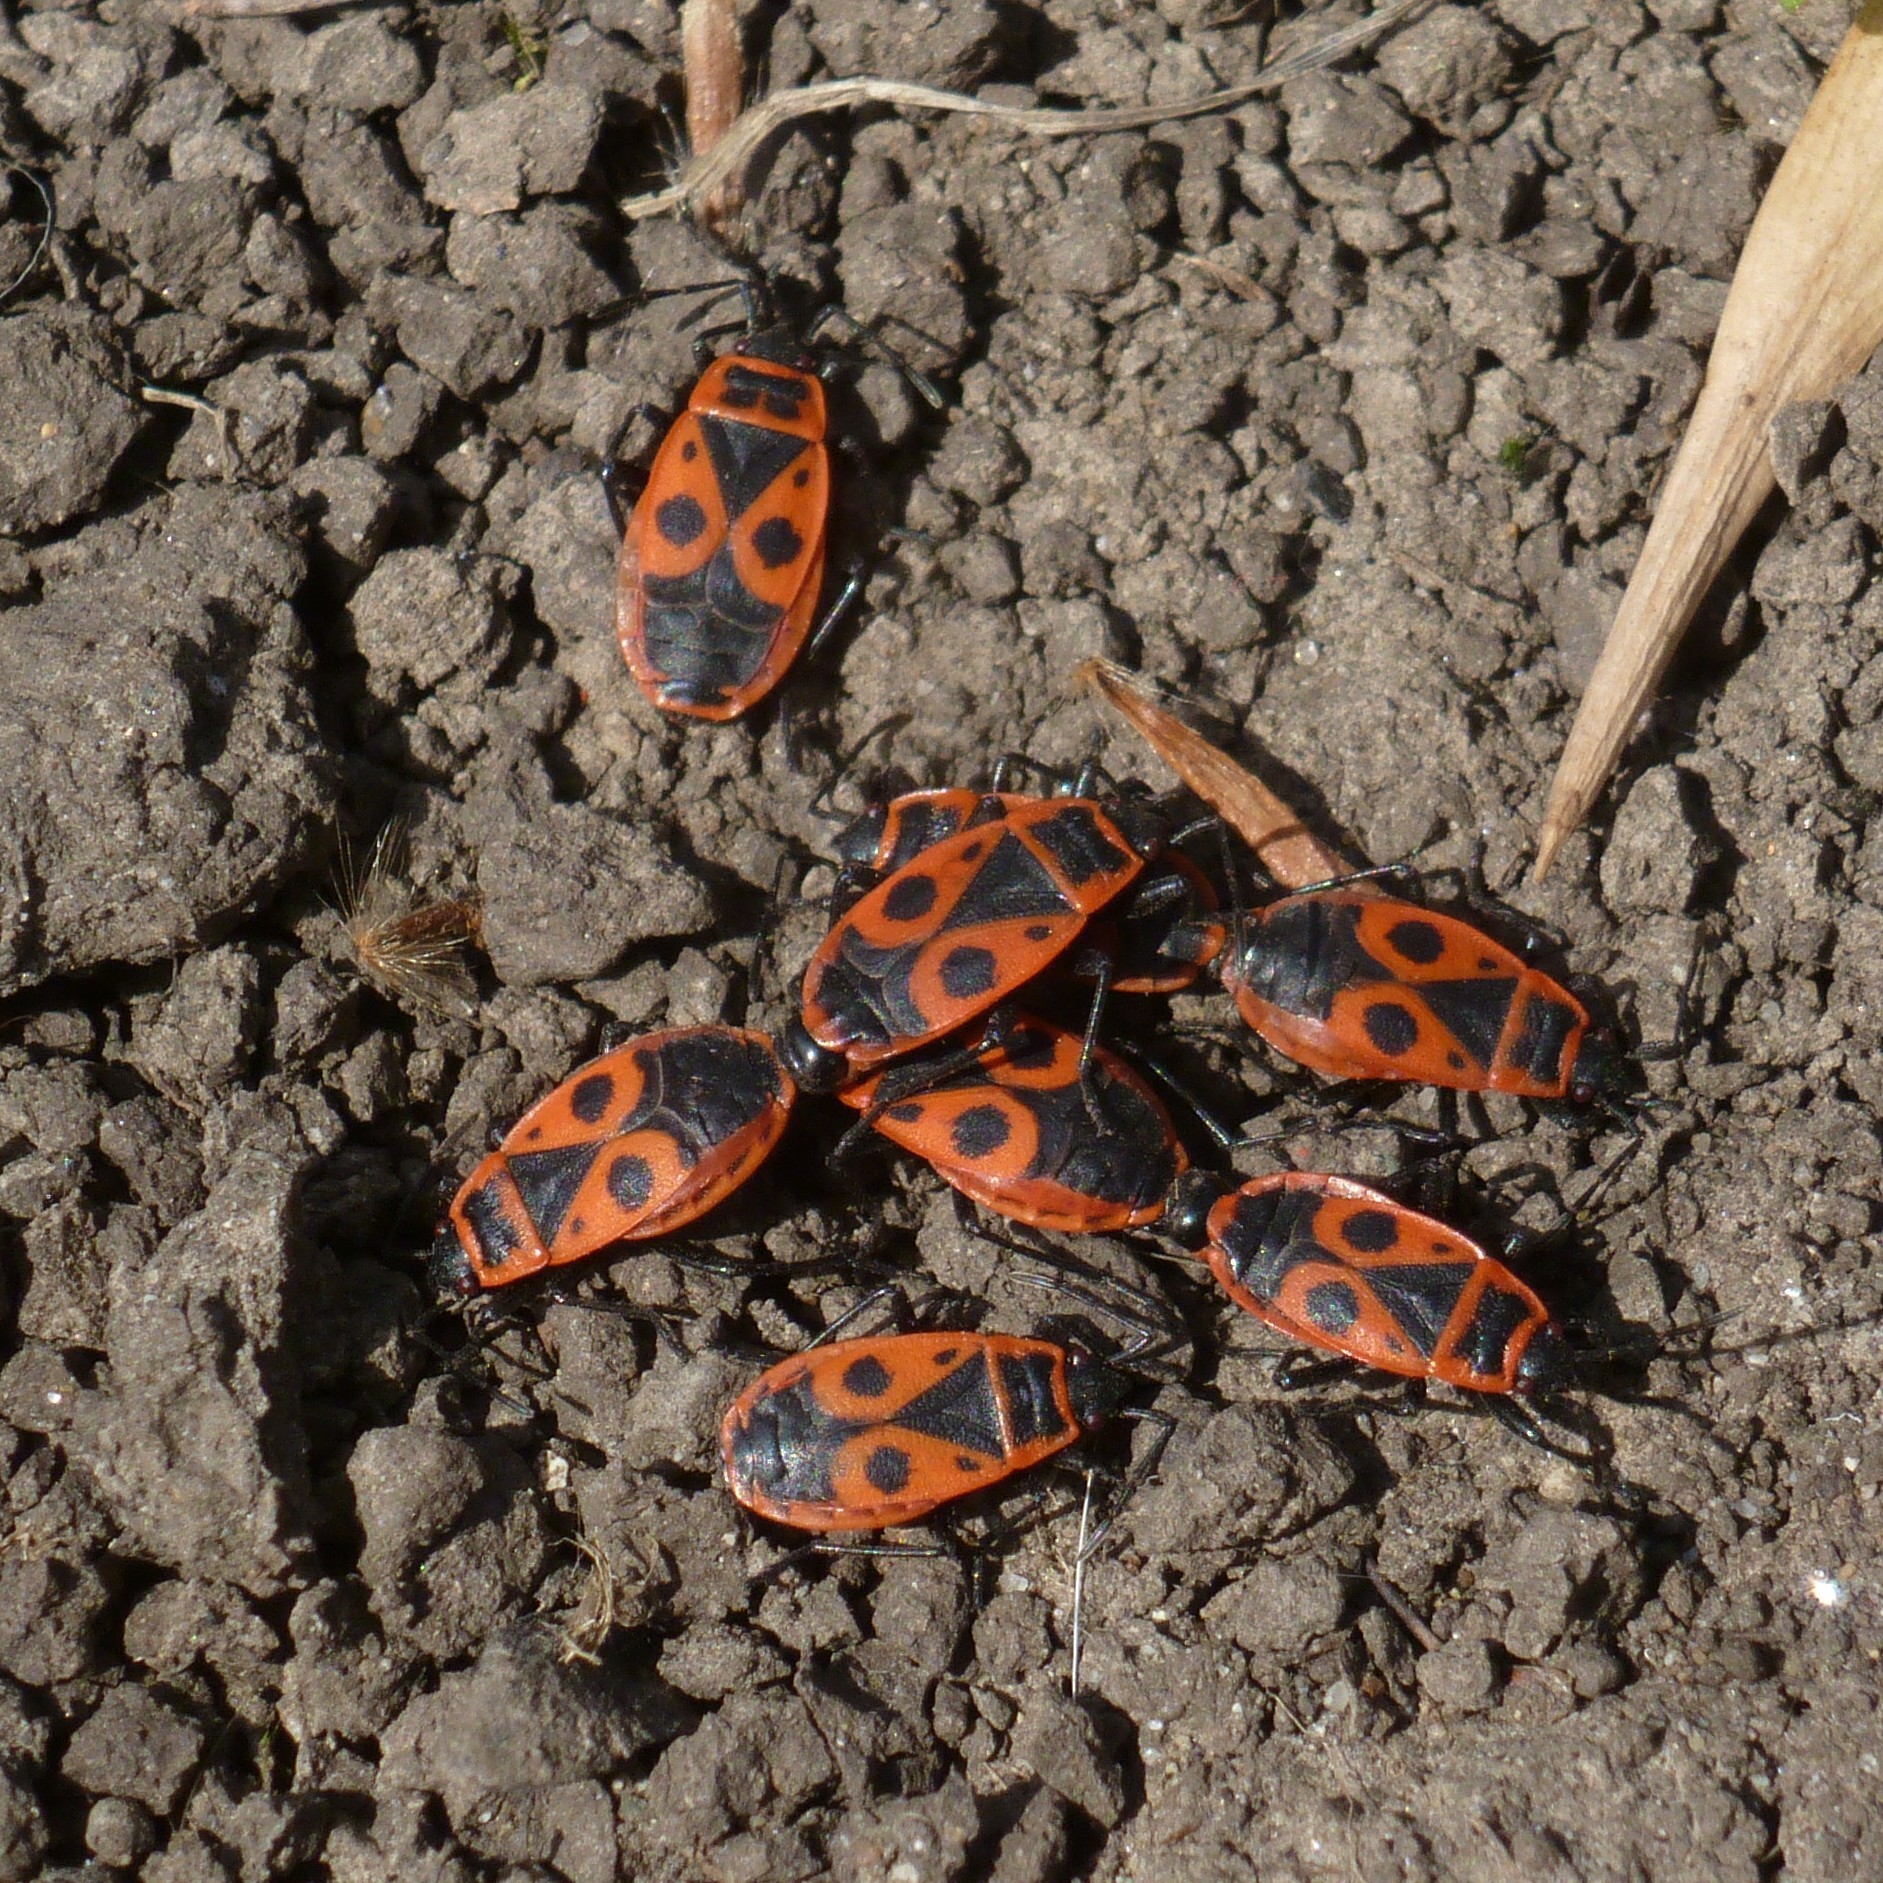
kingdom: Animalia
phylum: Arthropoda
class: Insecta
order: Hemiptera
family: Pyrrhocoridae
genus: Pyrrhocoris
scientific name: Pyrrhocoris apterus
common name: Firebug
